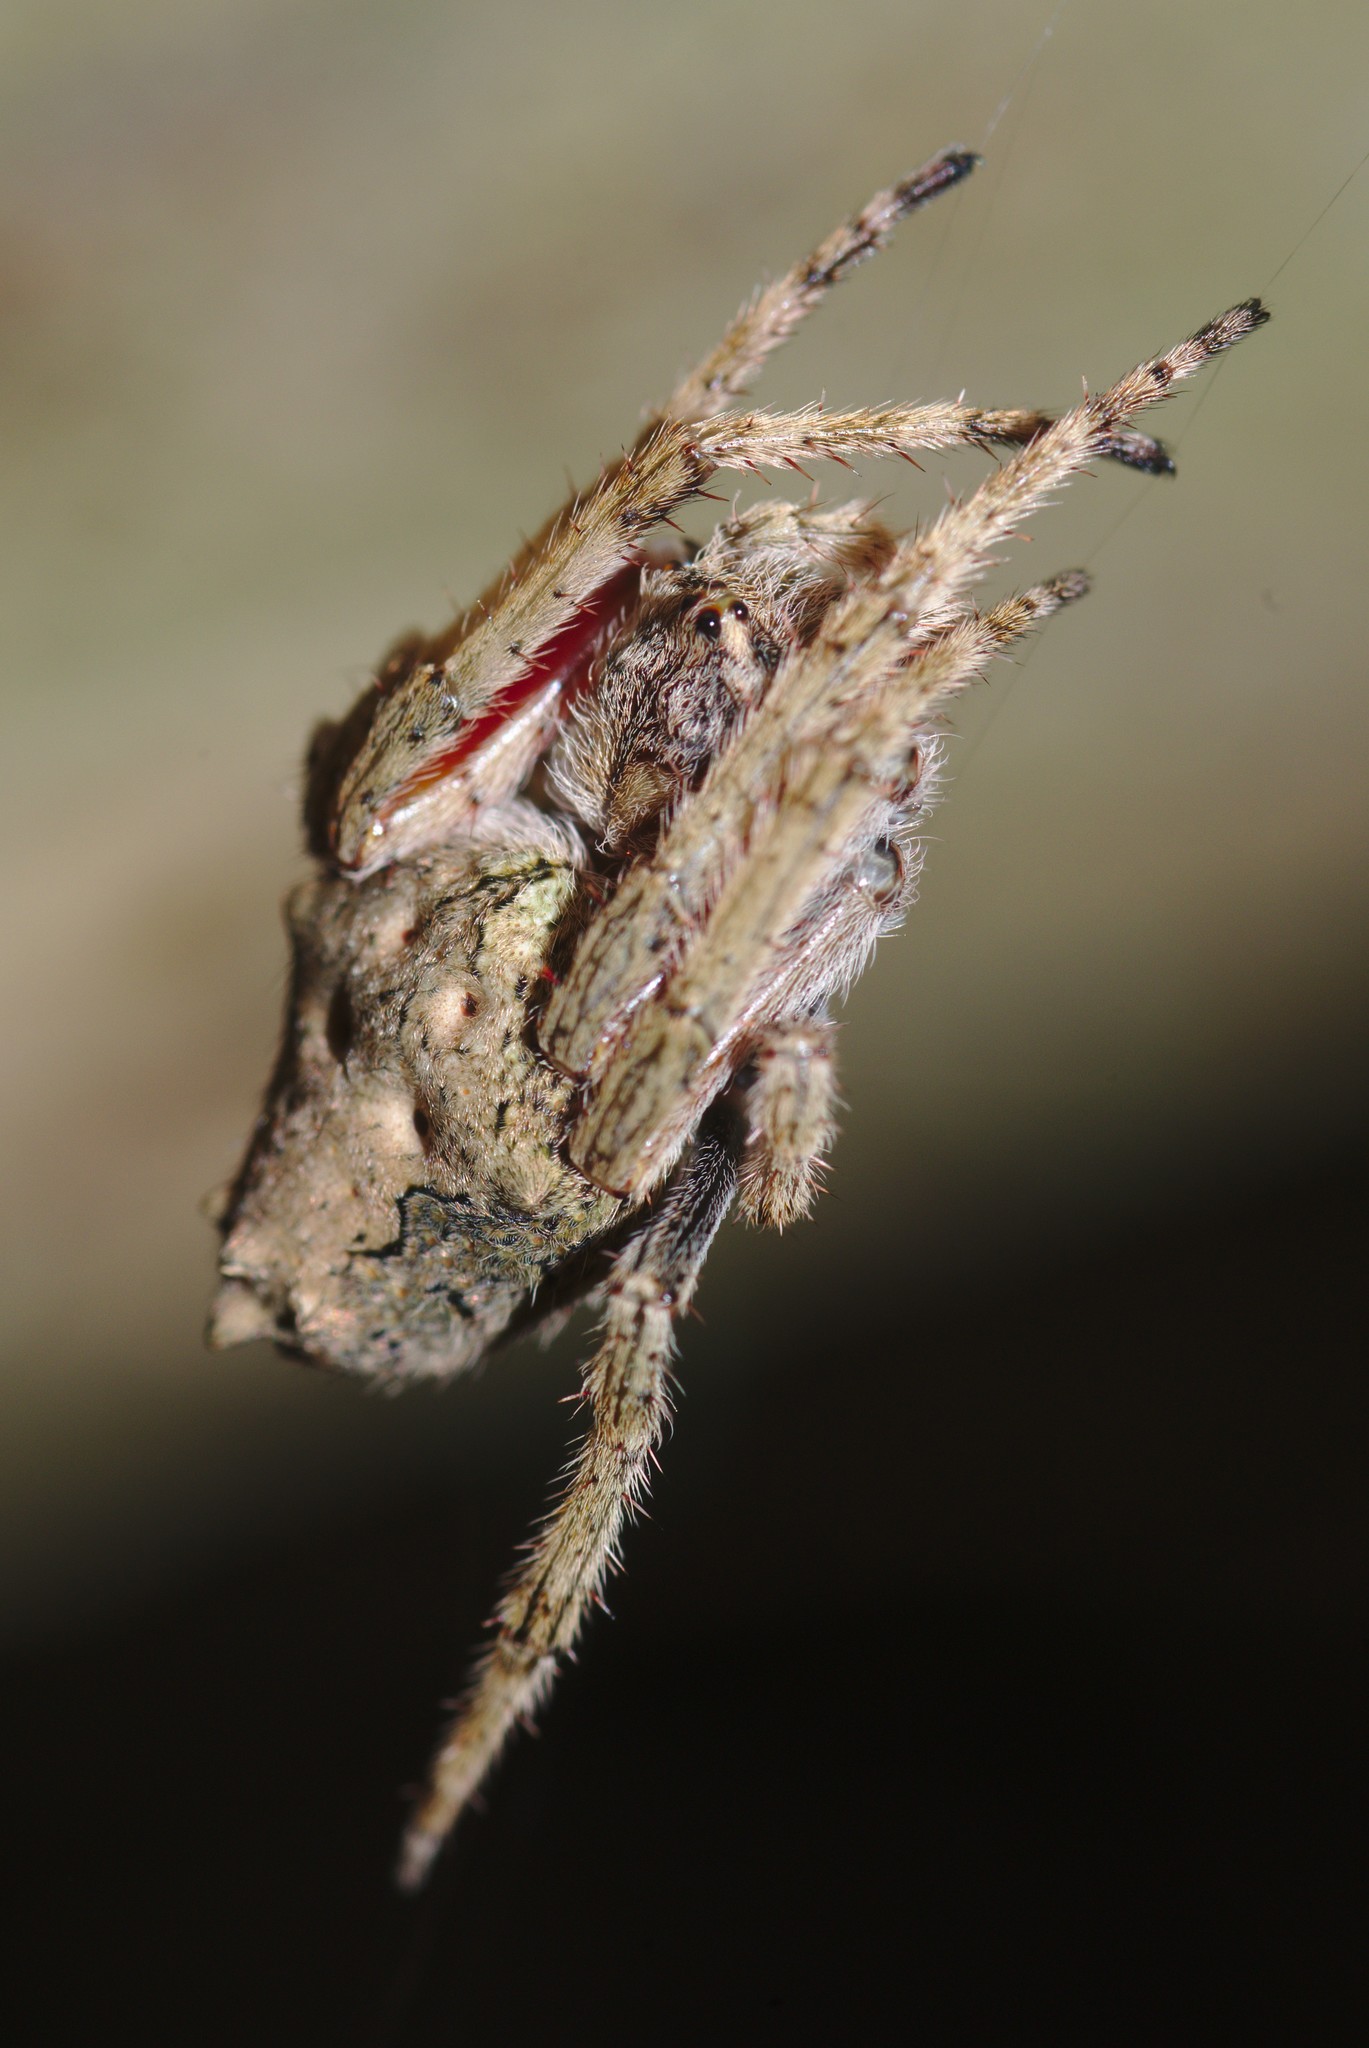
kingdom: Animalia
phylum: Arthropoda
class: Arachnida
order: Araneae
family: Araneidae
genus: Eriophora
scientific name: Eriophora pustulosa
